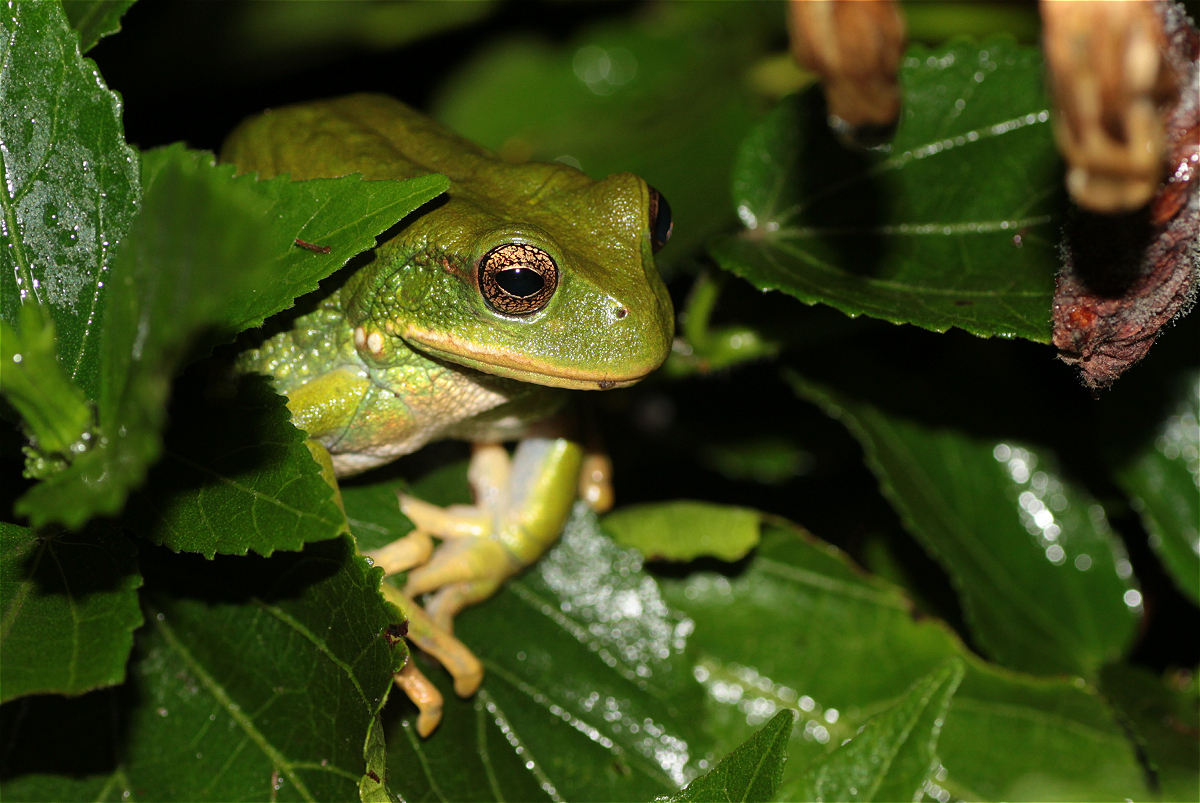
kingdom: Animalia
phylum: Chordata
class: Amphibia
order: Anura
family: Hemiphractidae
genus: Gastrotheca
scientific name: Gastrotheca cuencana
